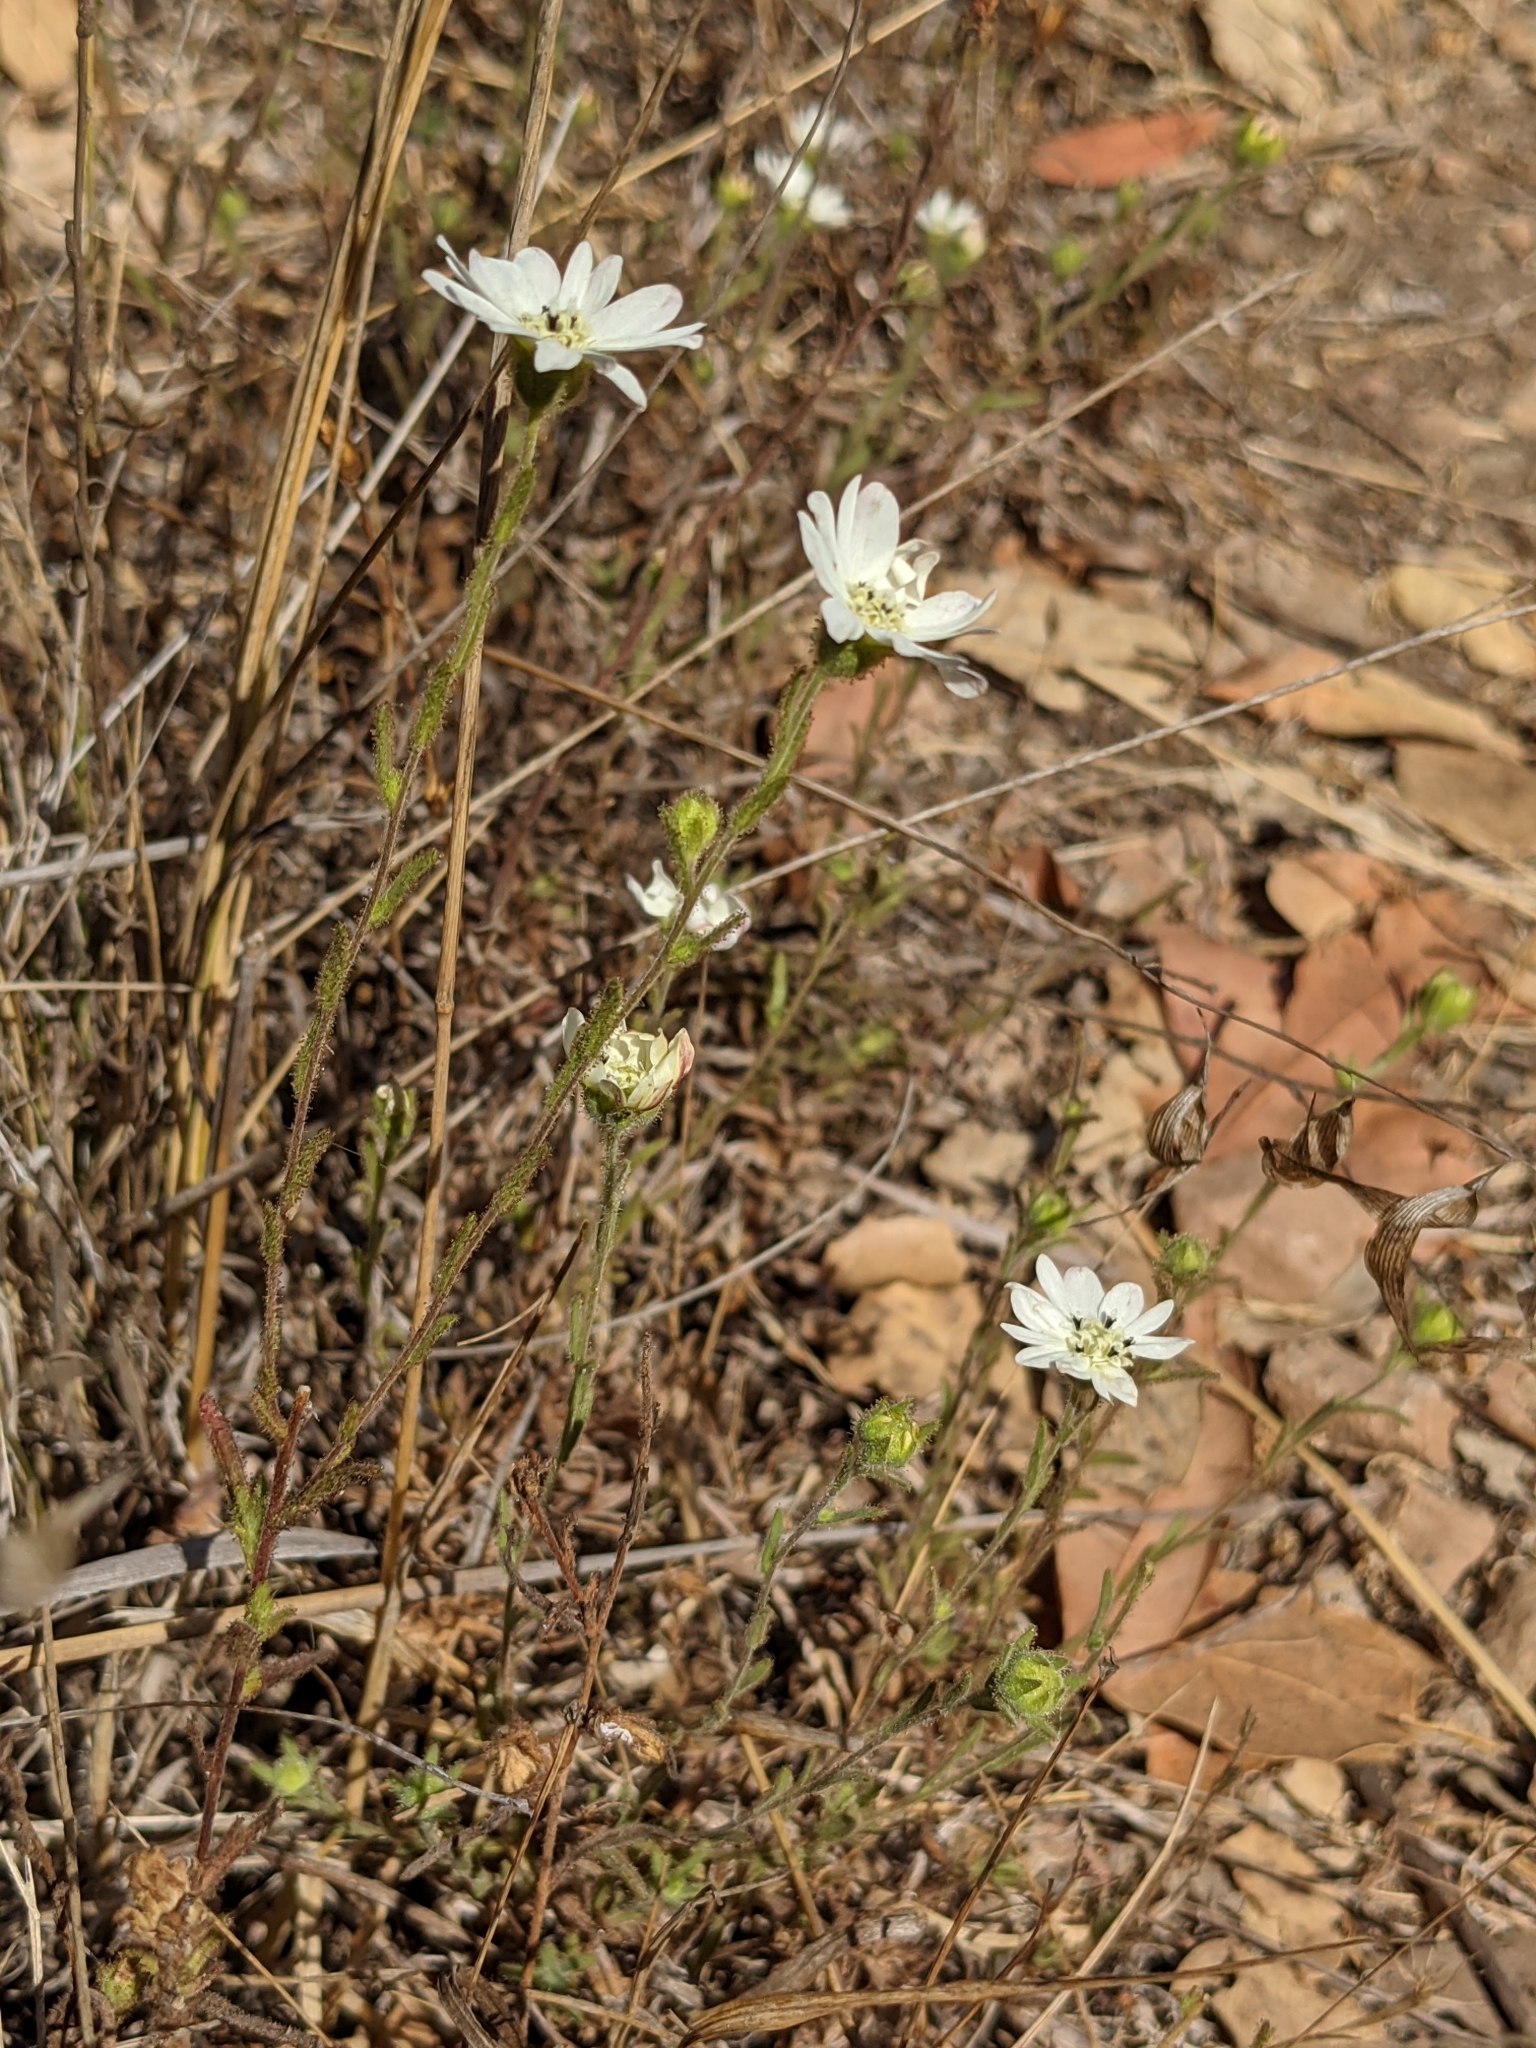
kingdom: Plantae
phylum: Tracheophyta
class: Magnoliopsida
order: Asterales
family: Asteraceae
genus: Hemizonia
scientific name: Hemizonia congesta
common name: Hayfield tarweed
